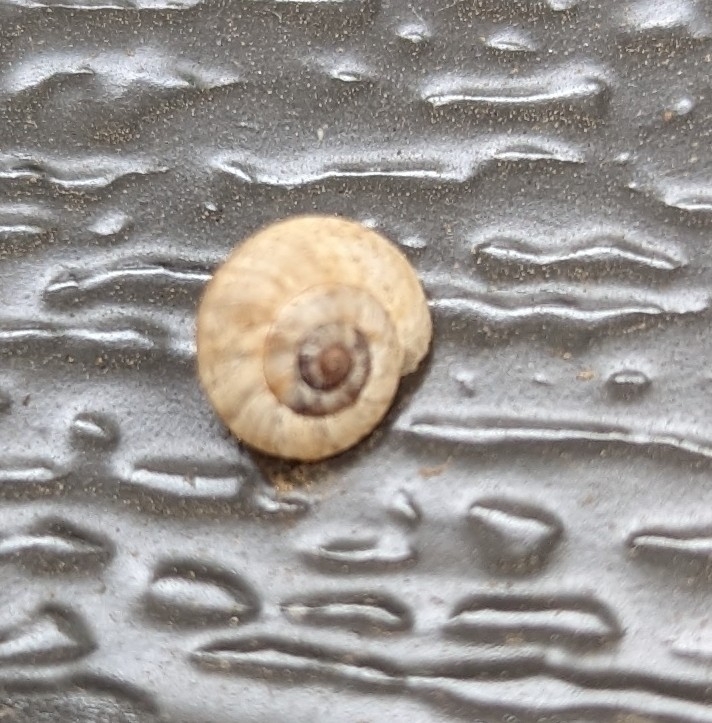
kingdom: Animalia
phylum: Mollusca
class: Gastropoda
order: Stylommatophora
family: Geomitridae
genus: Cernuella
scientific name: Cernuella virgata
